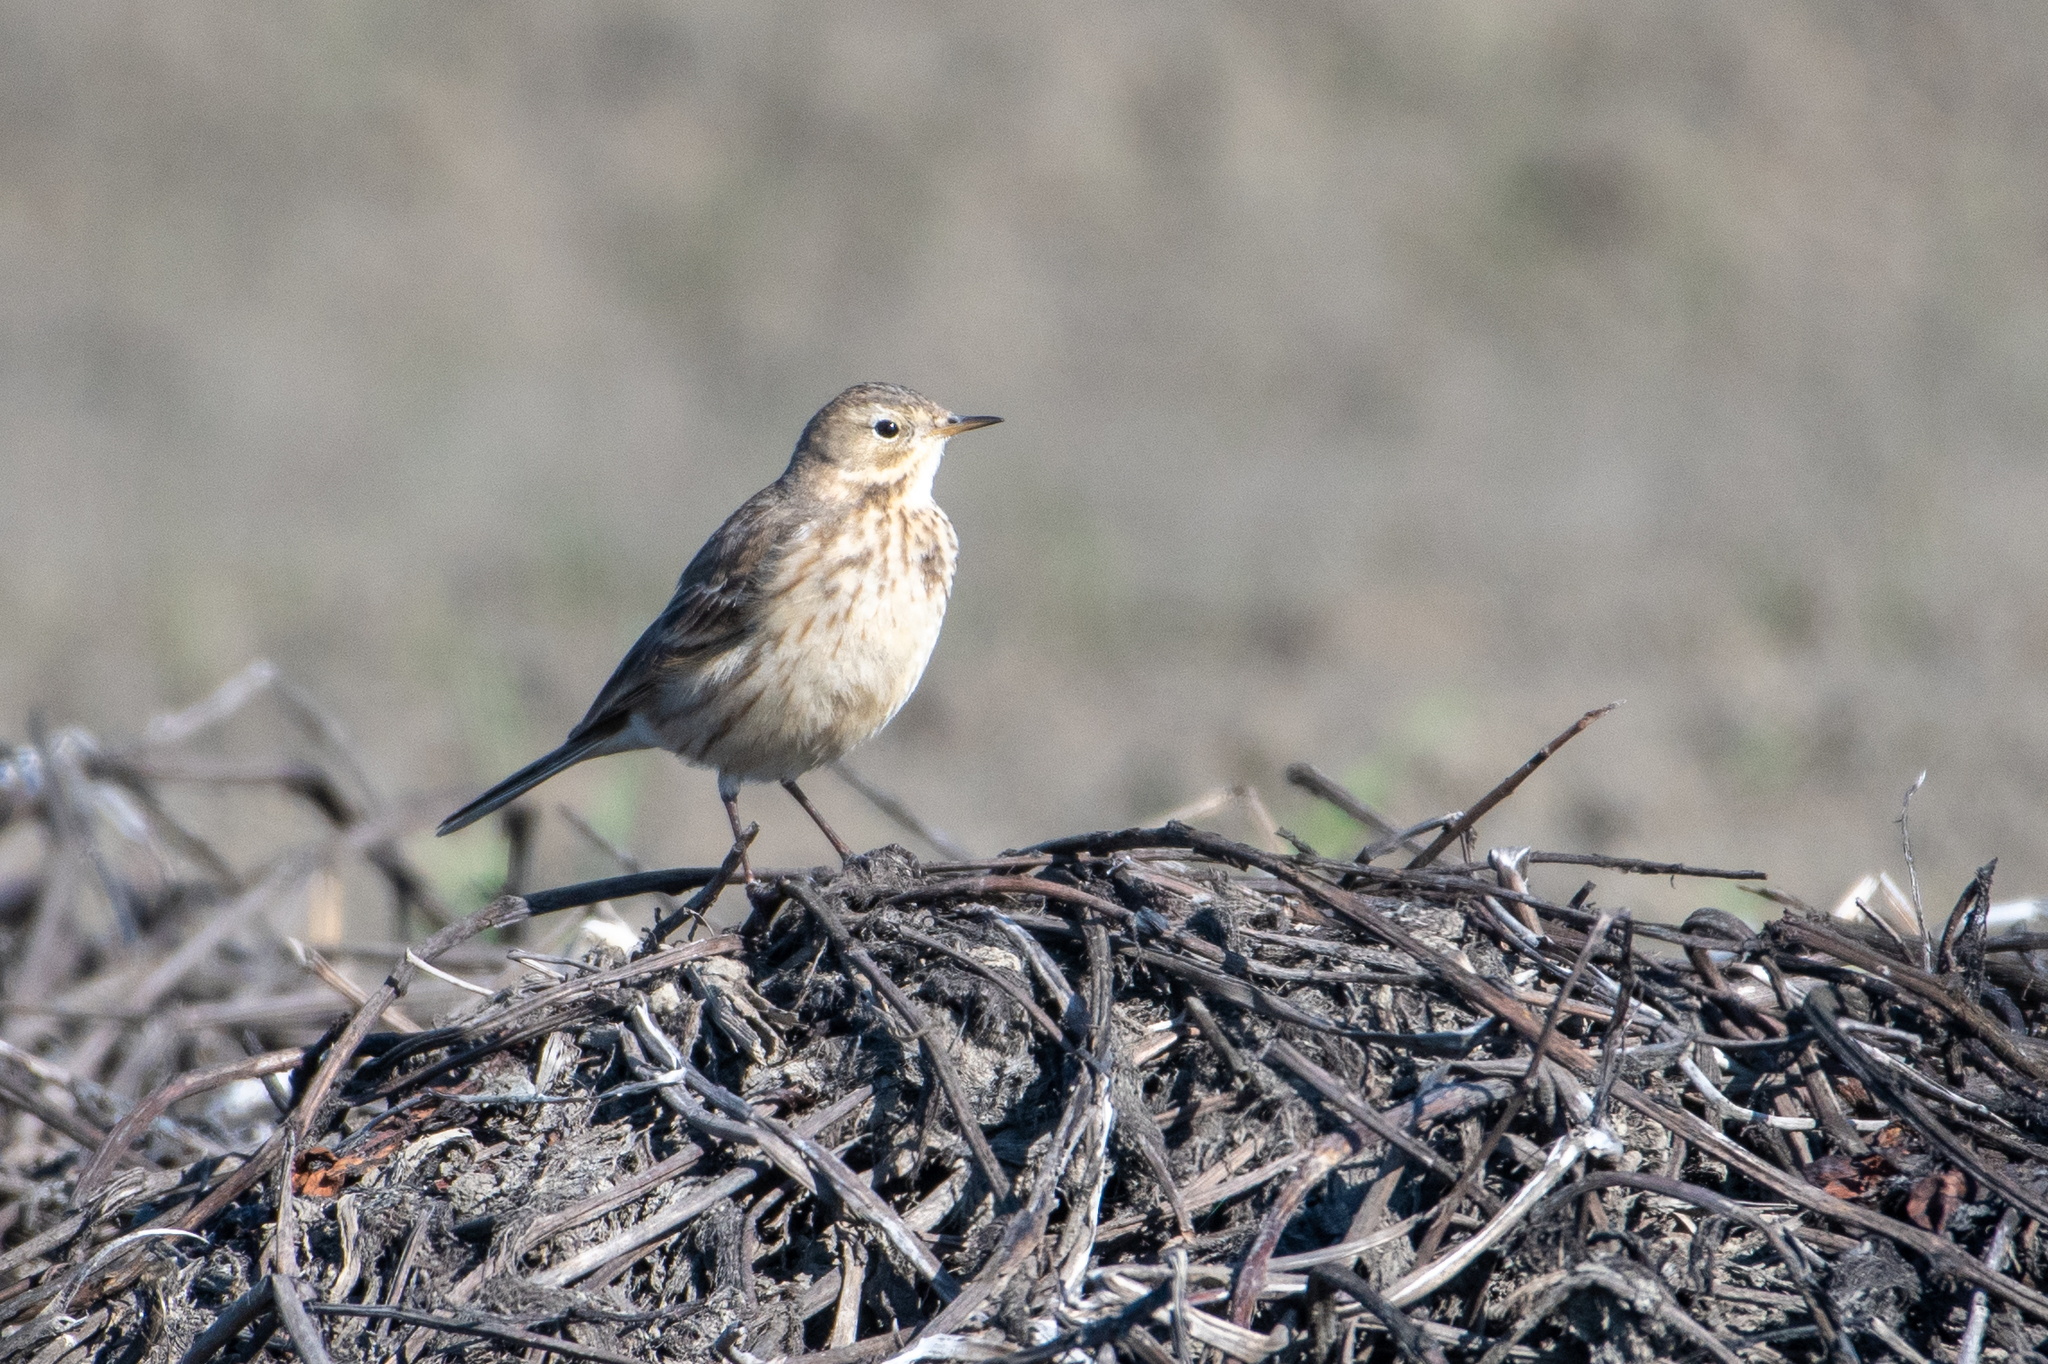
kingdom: Animalia
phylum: Chordata
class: Aves
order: Passeriformes
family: Motacillidae
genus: Anthus
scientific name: Anthus rubescens
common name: Buff-bellied pipit
